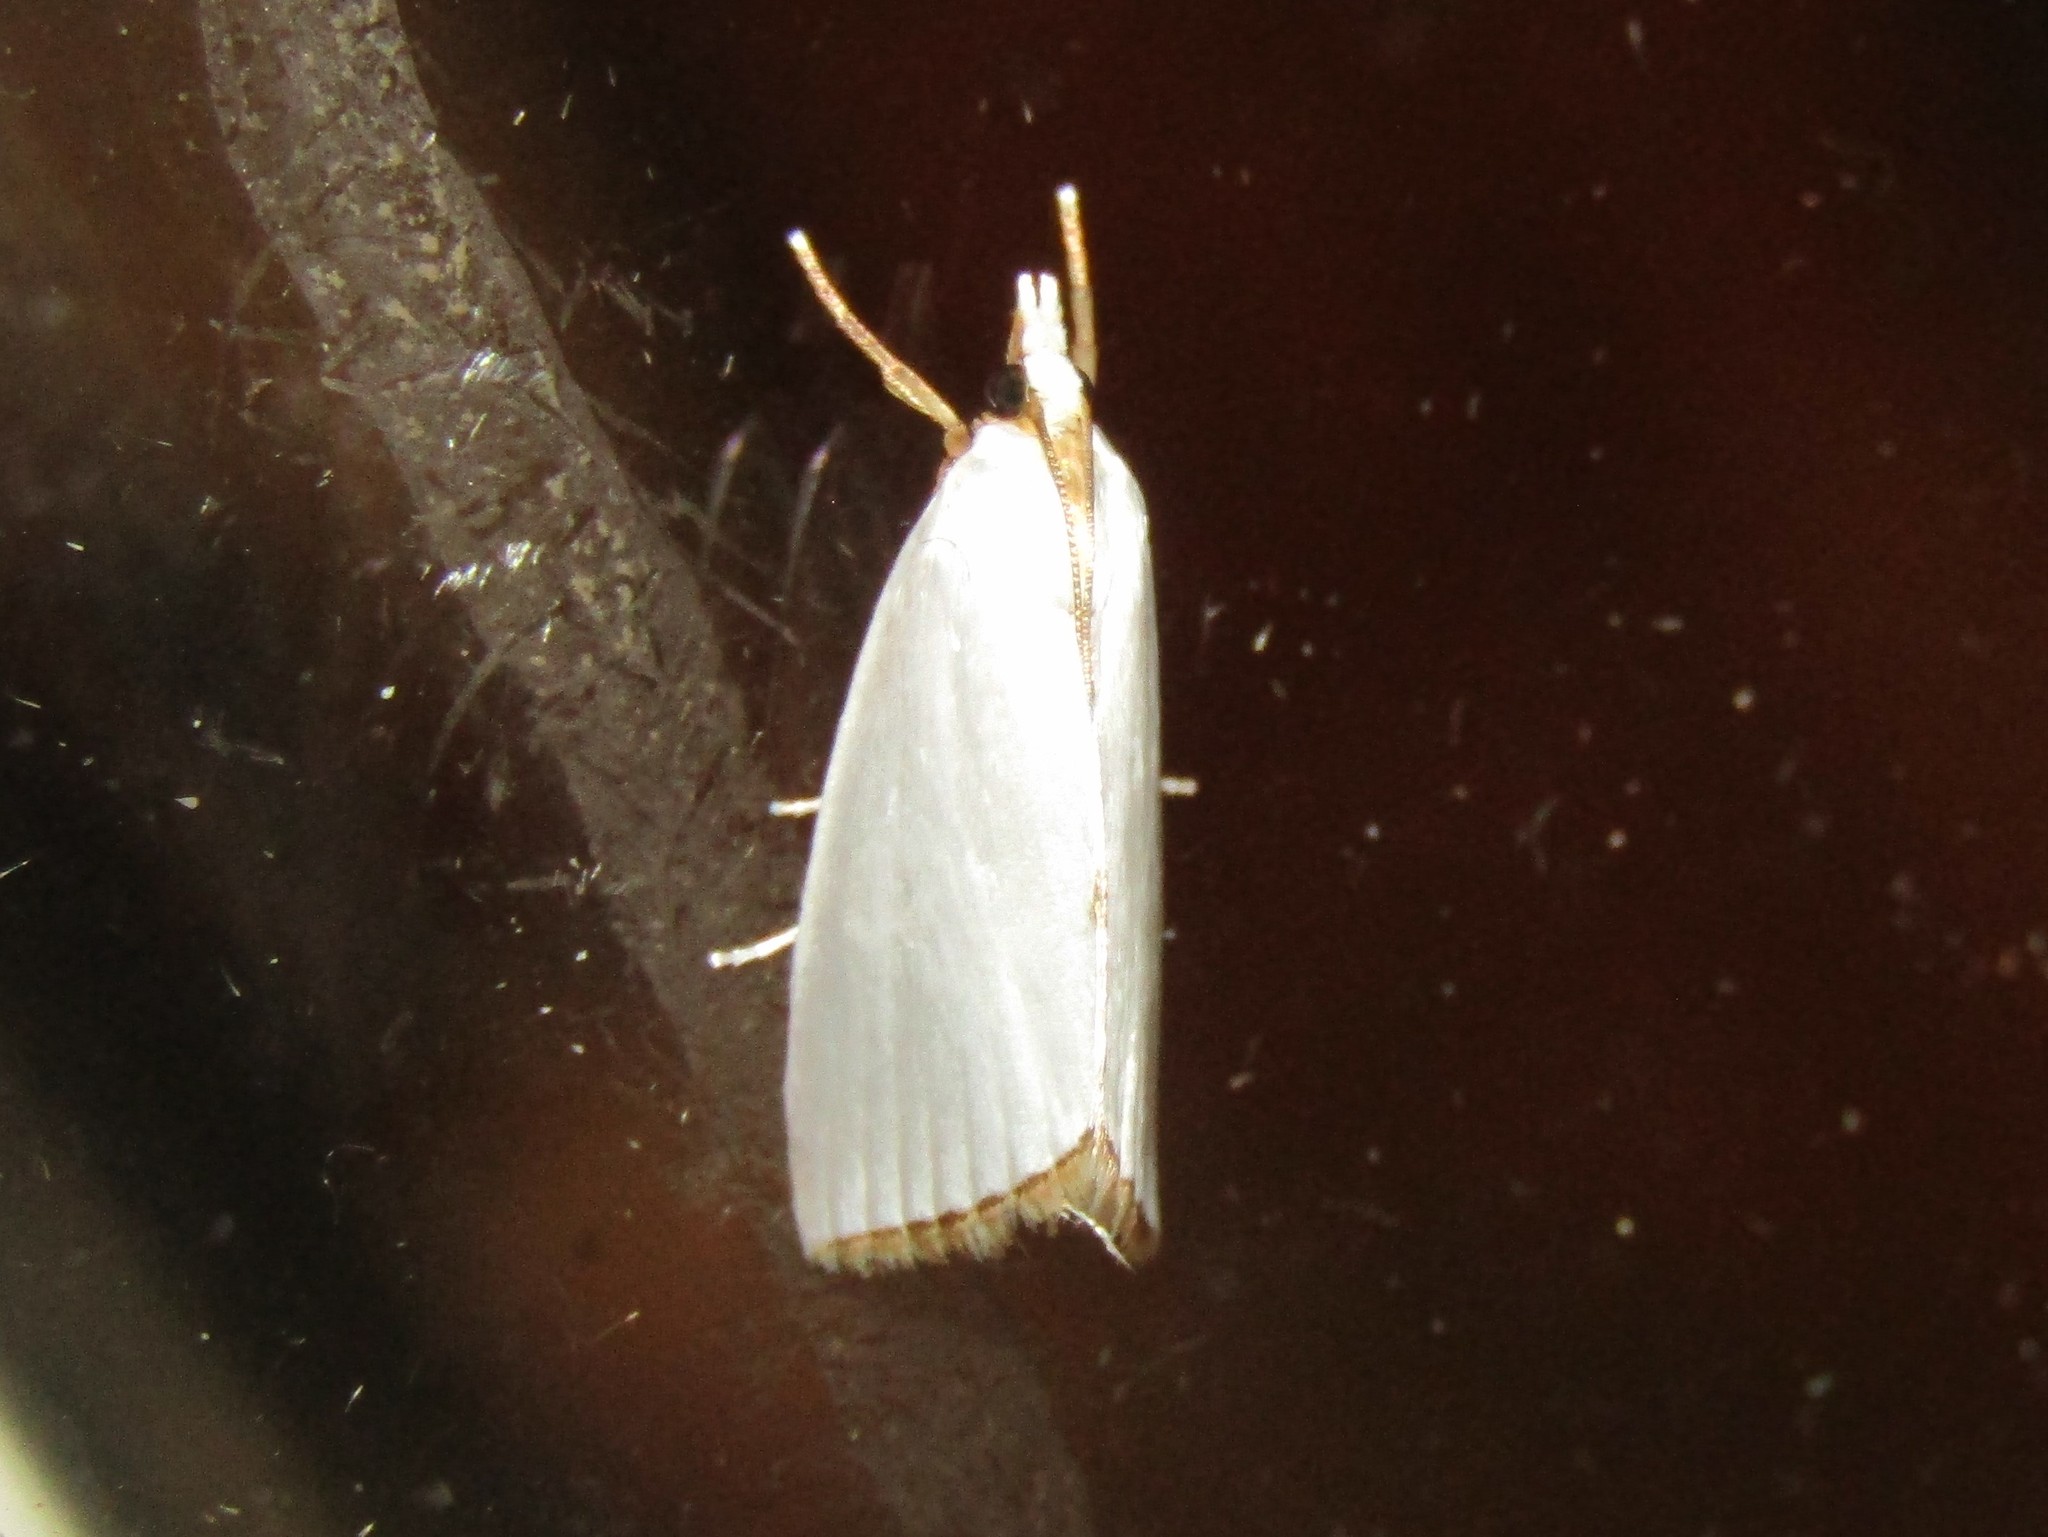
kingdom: Animalia
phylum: Arthropoda
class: Insecta
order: Lepidoptera
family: Crambidae
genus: Argyria
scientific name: Argyria nivalis
